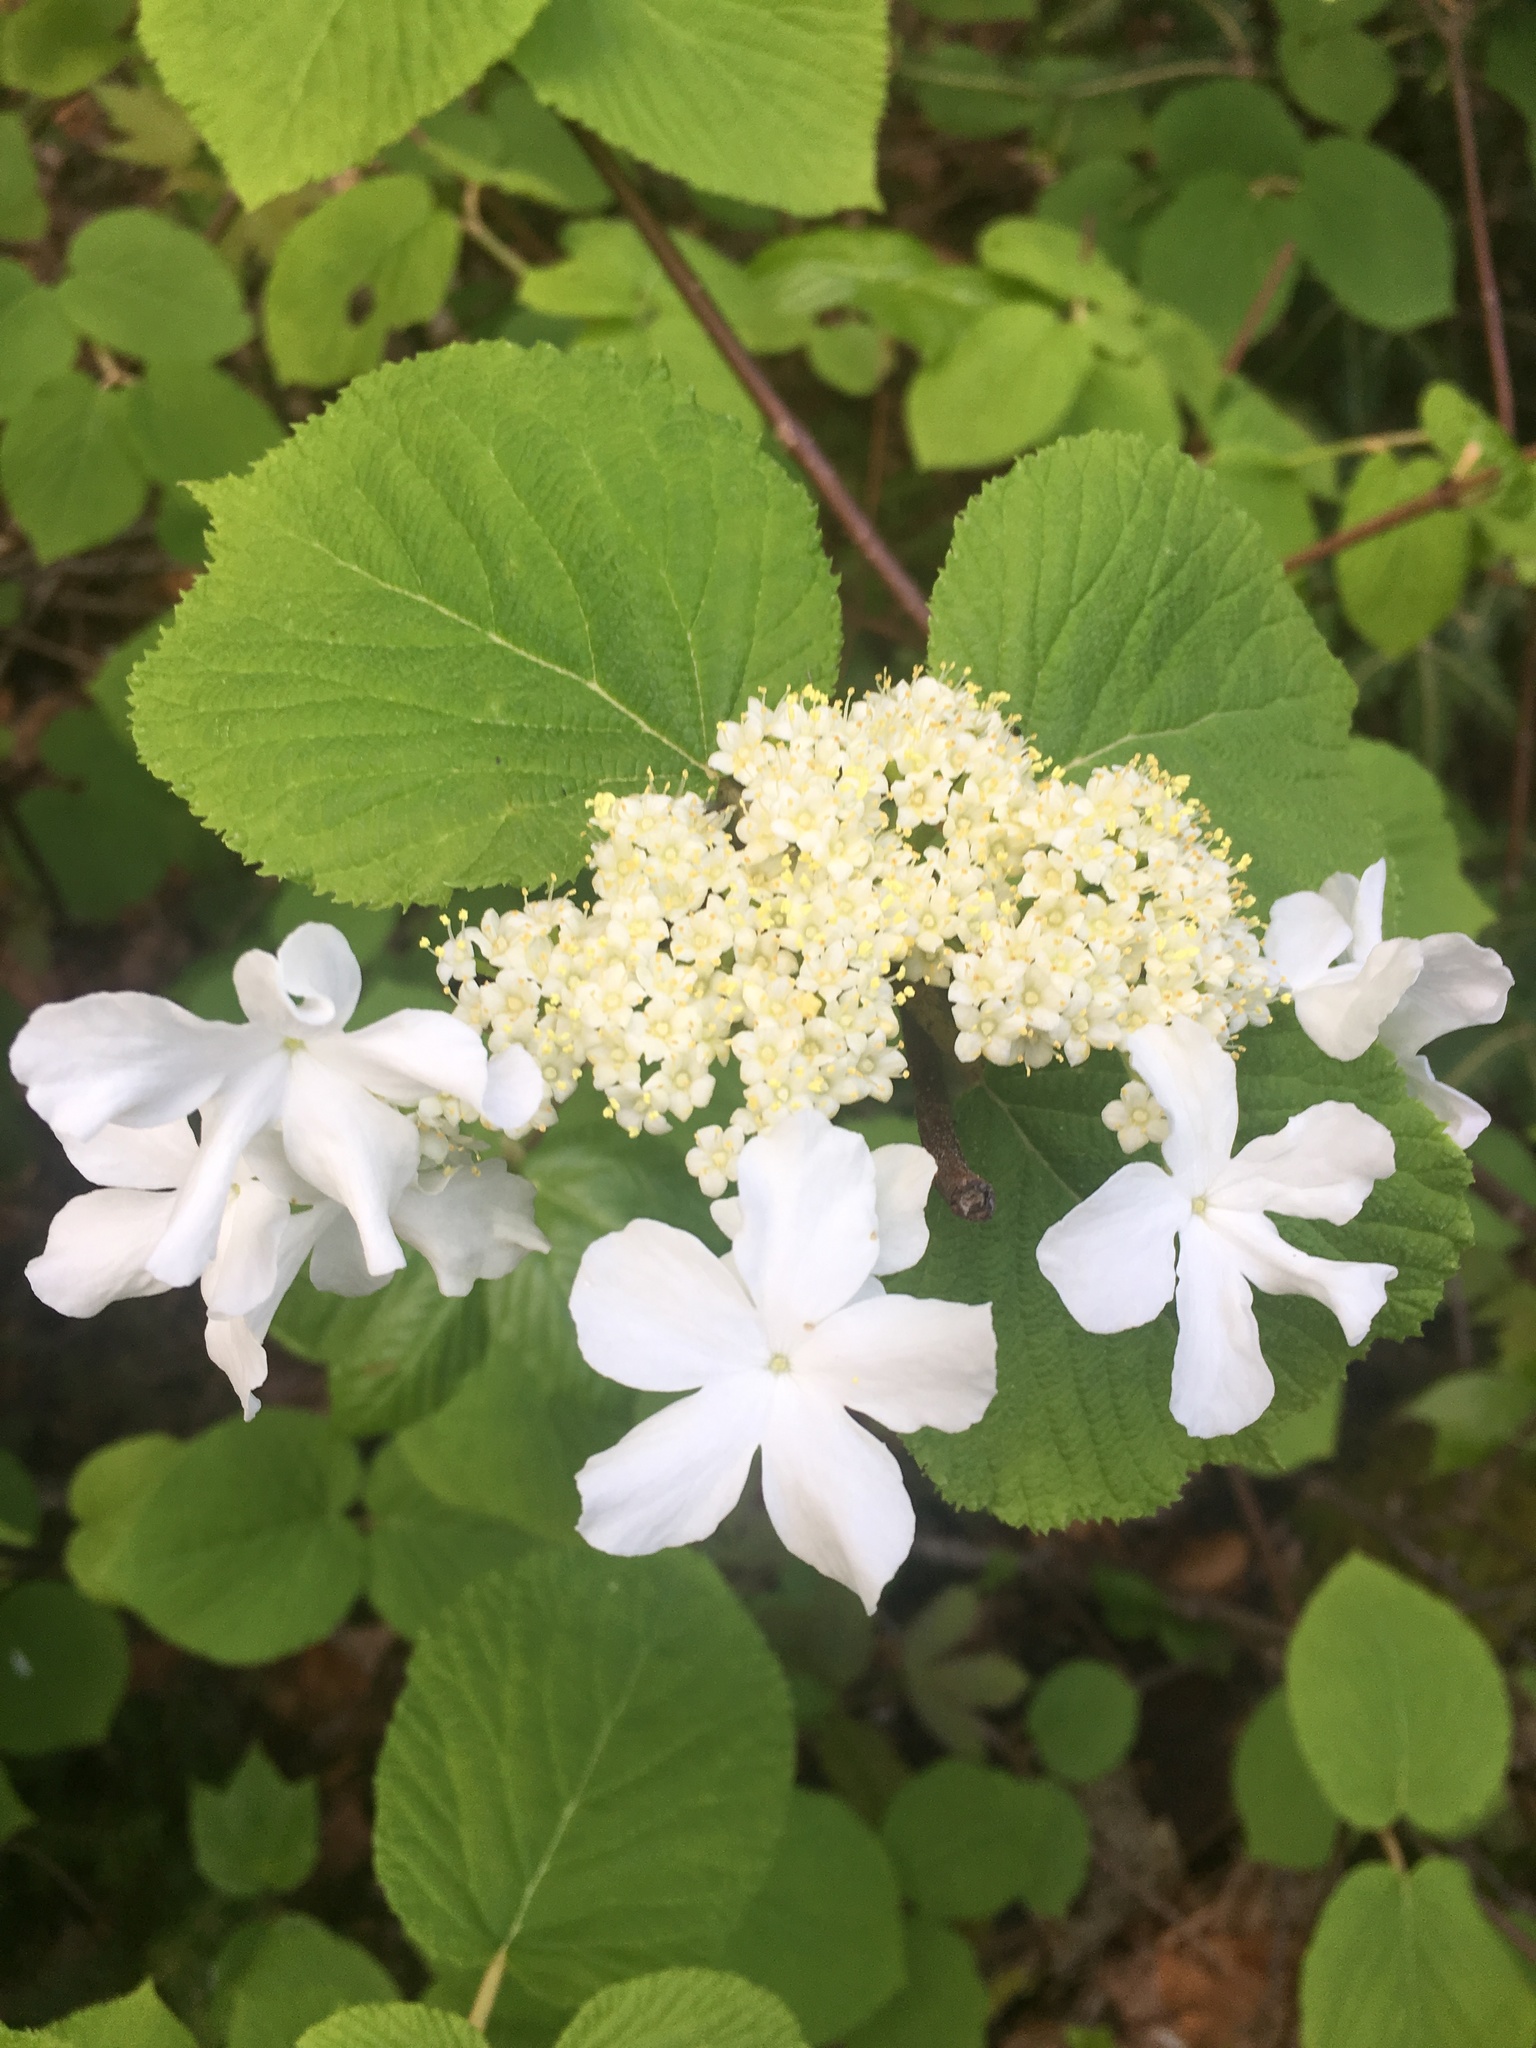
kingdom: Plantae
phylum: Tracheophyta
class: Magnoliopsida
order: Dipsacales
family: Viburnaceae
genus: Viburnum
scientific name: Viburnum lantanoides
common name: Hobblebush
